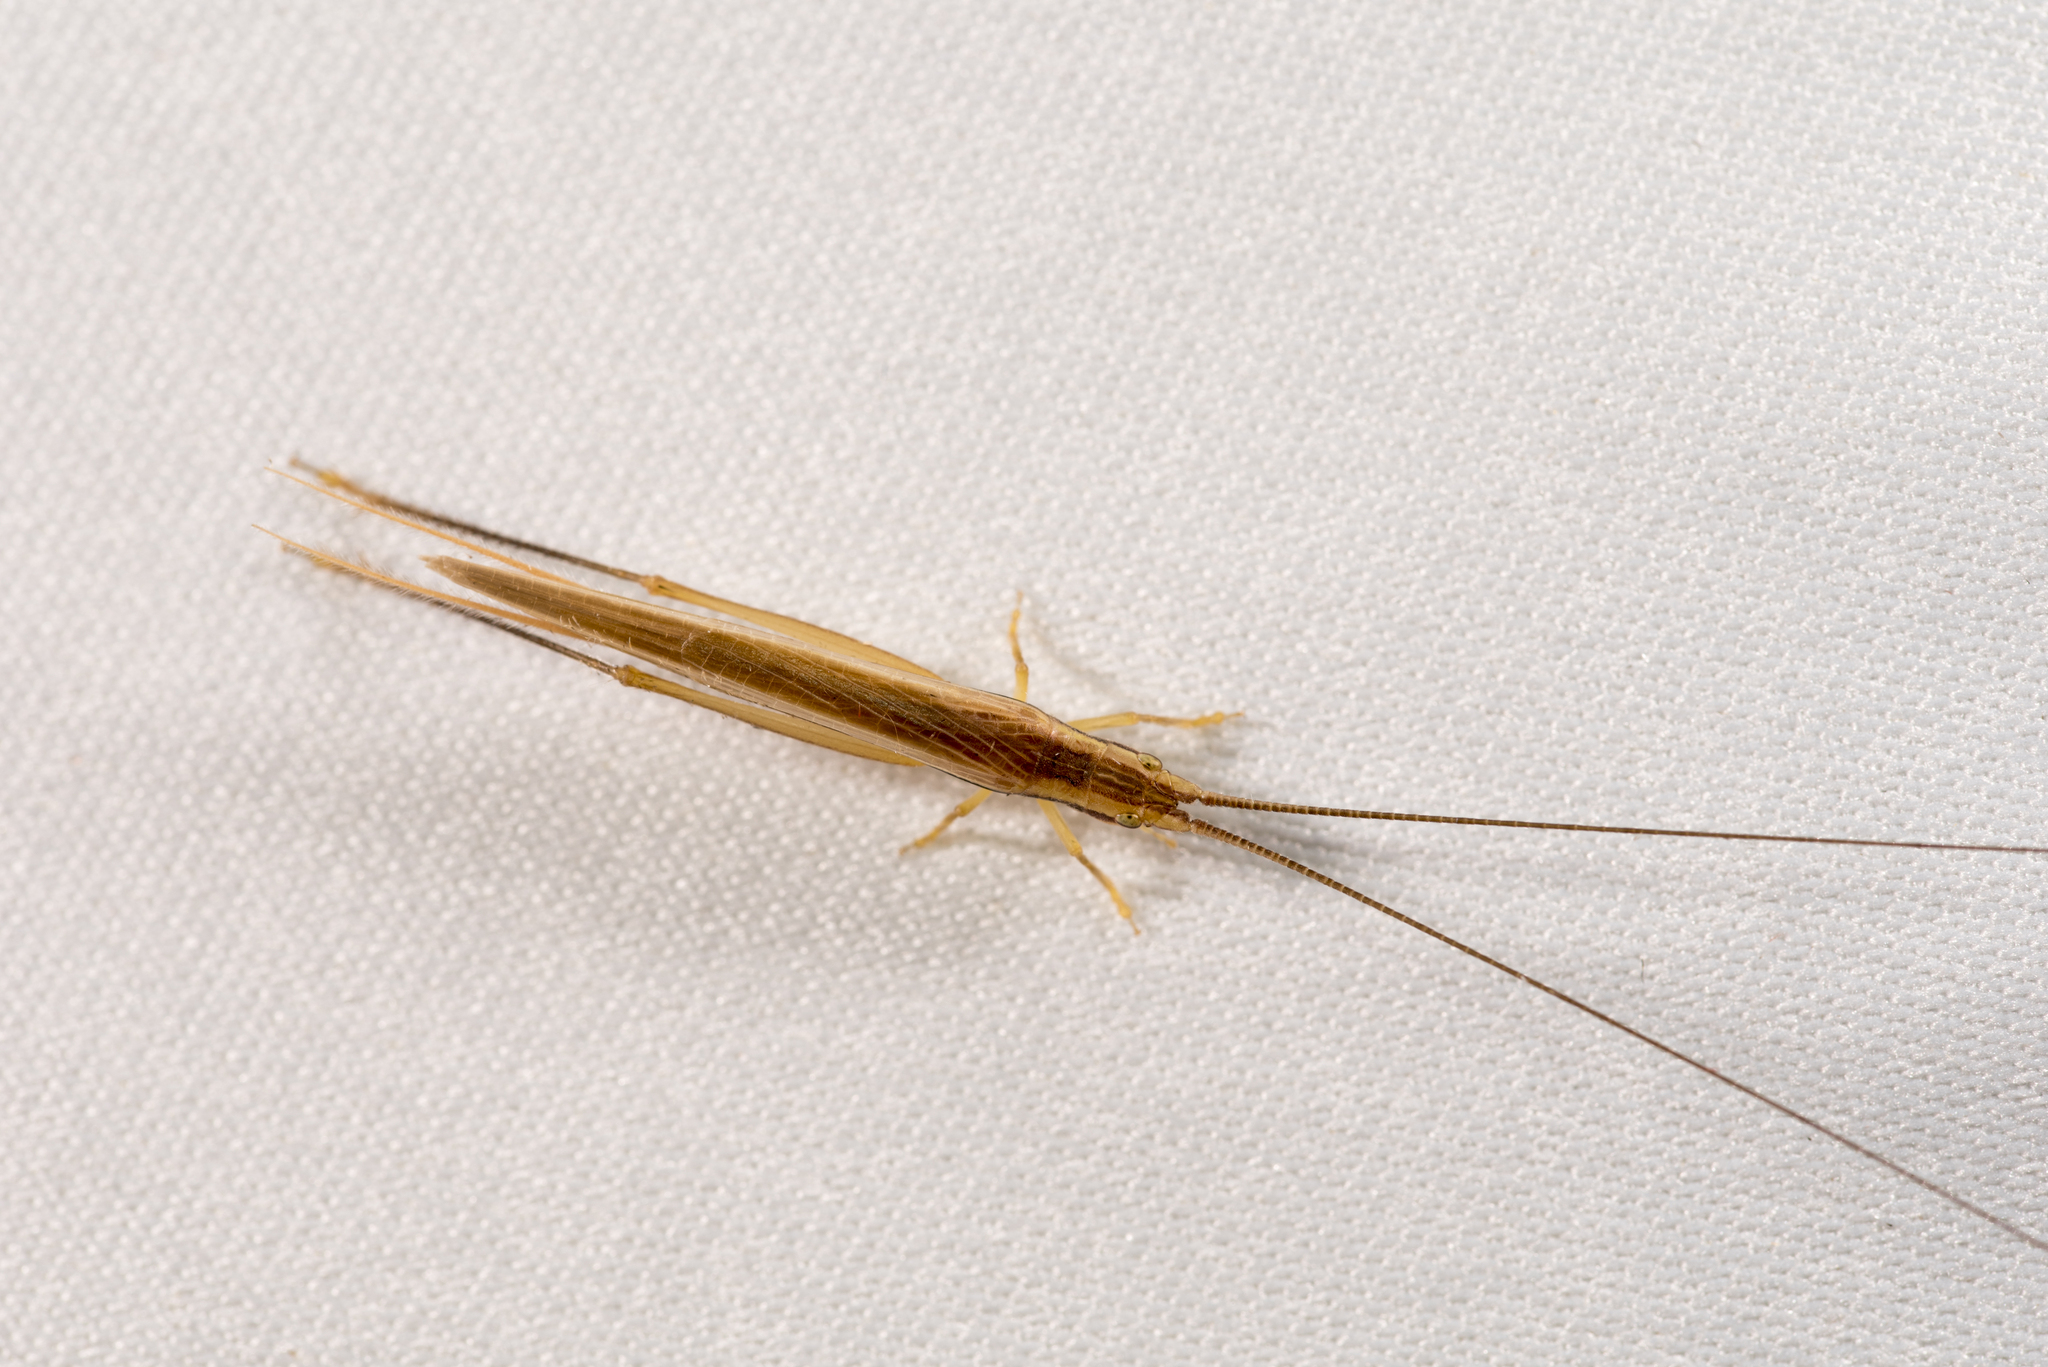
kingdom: Animalia
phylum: Arthropoda
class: Insecta
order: Orthoptera
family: Gryllidae
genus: Patiscus
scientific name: Patiscus cephalotes
